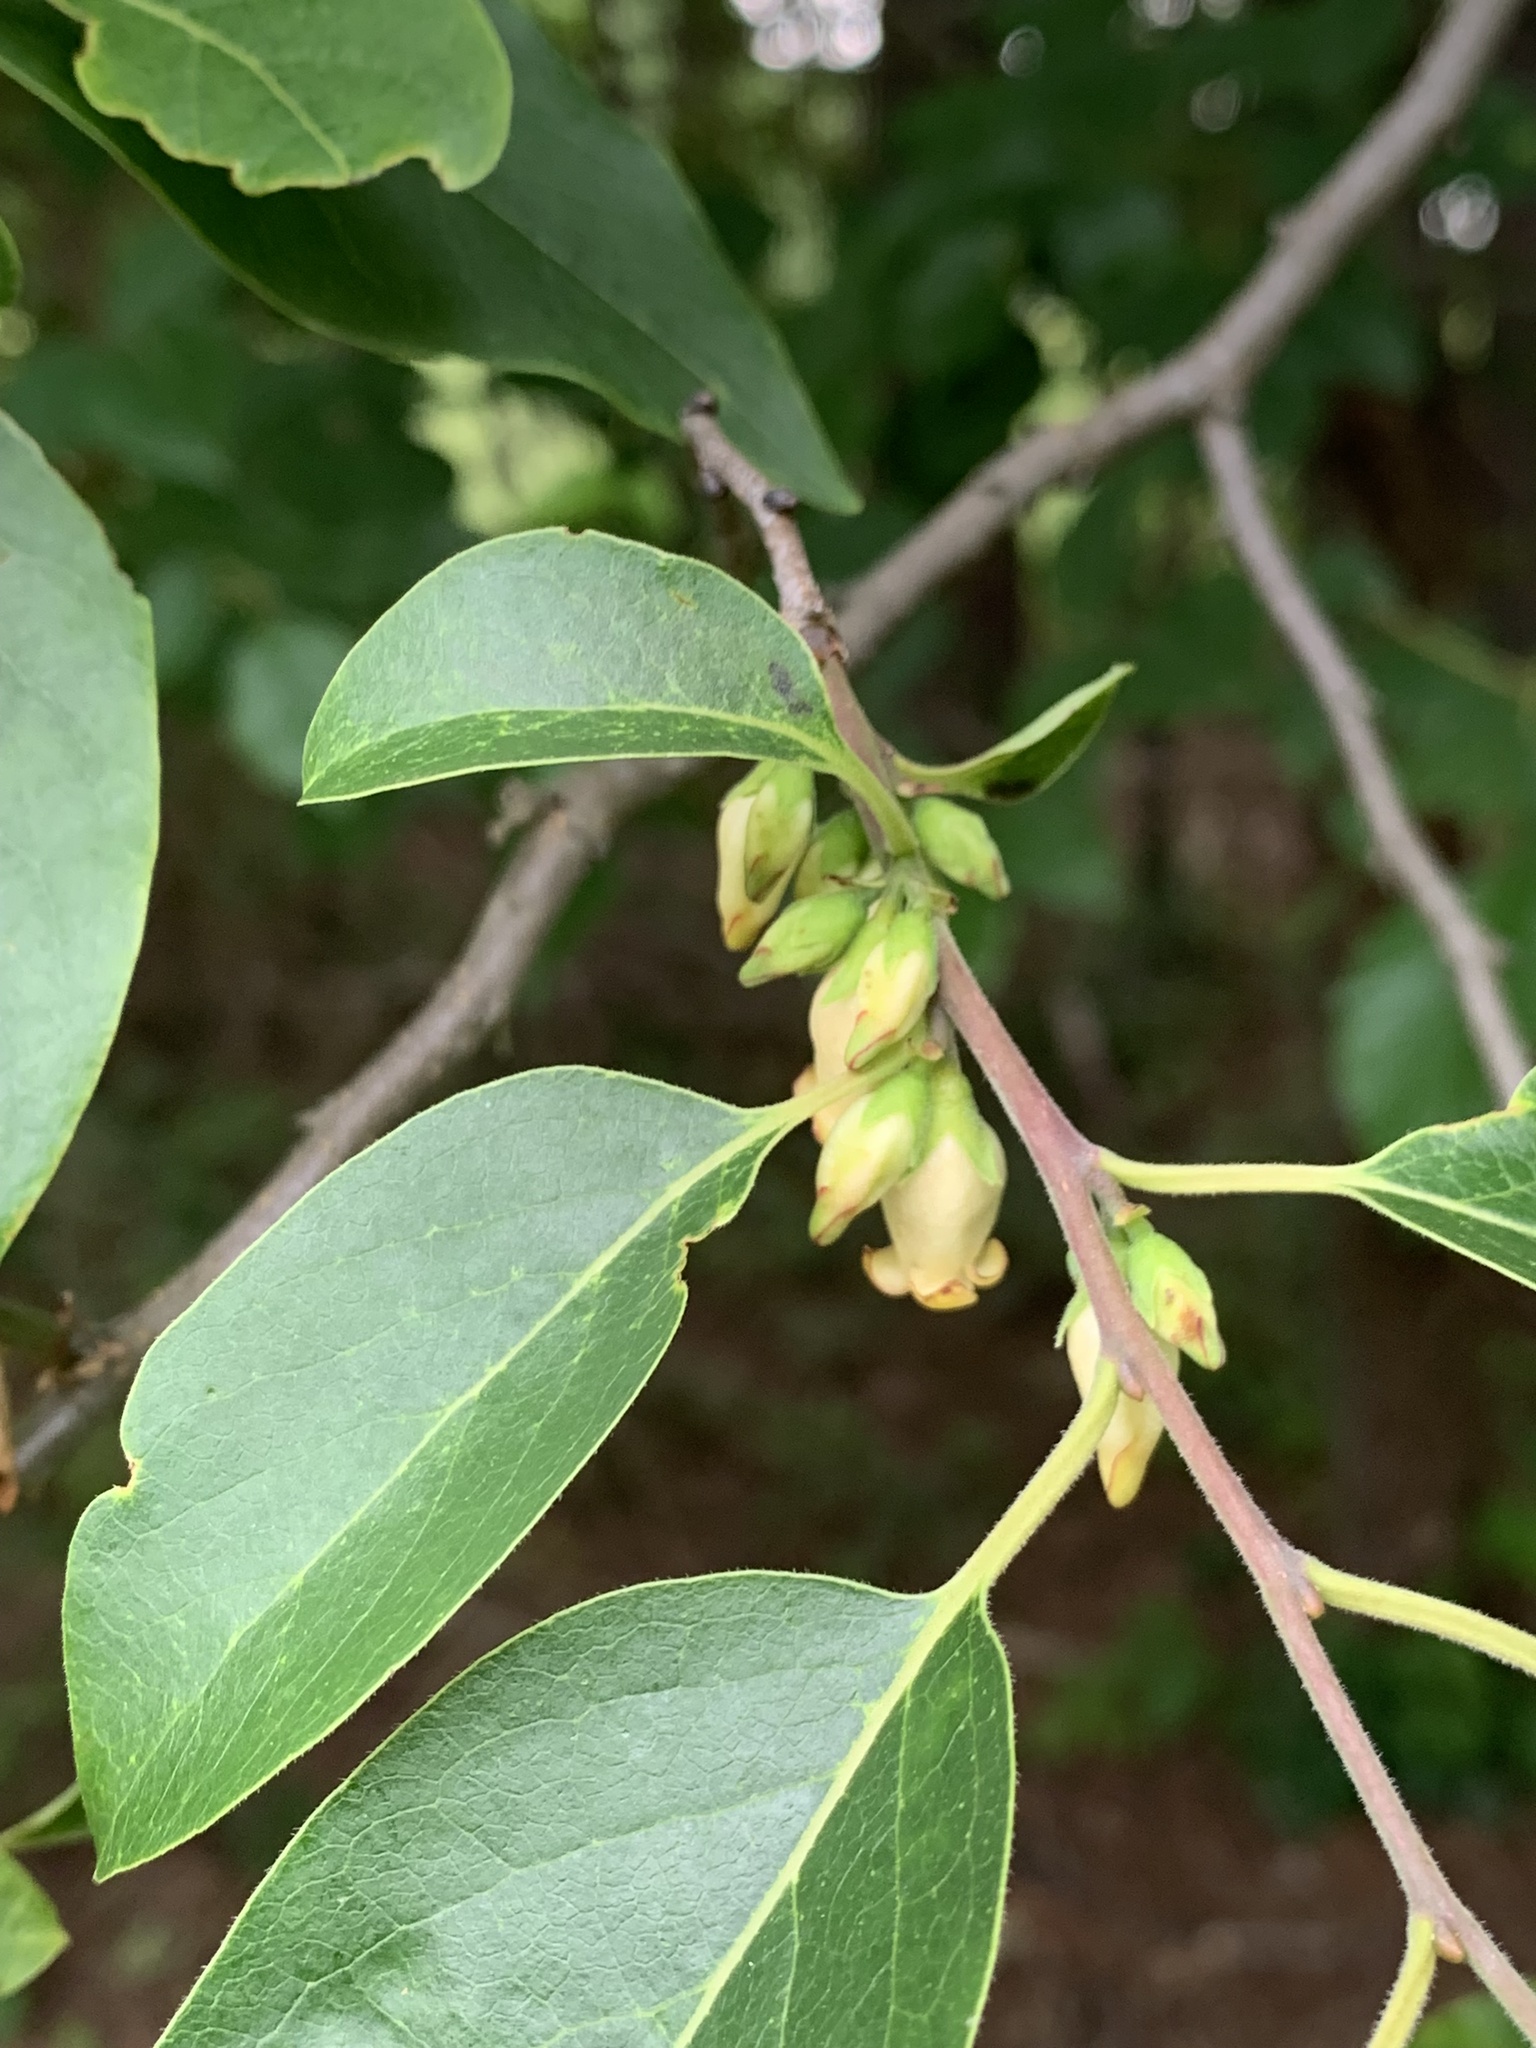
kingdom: Plantae
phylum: Tracheophyta
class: Magnoliopsida
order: Ericales
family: Ebenaceae
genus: Diospyros
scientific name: Diospyros virginiana
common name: Persimmon
